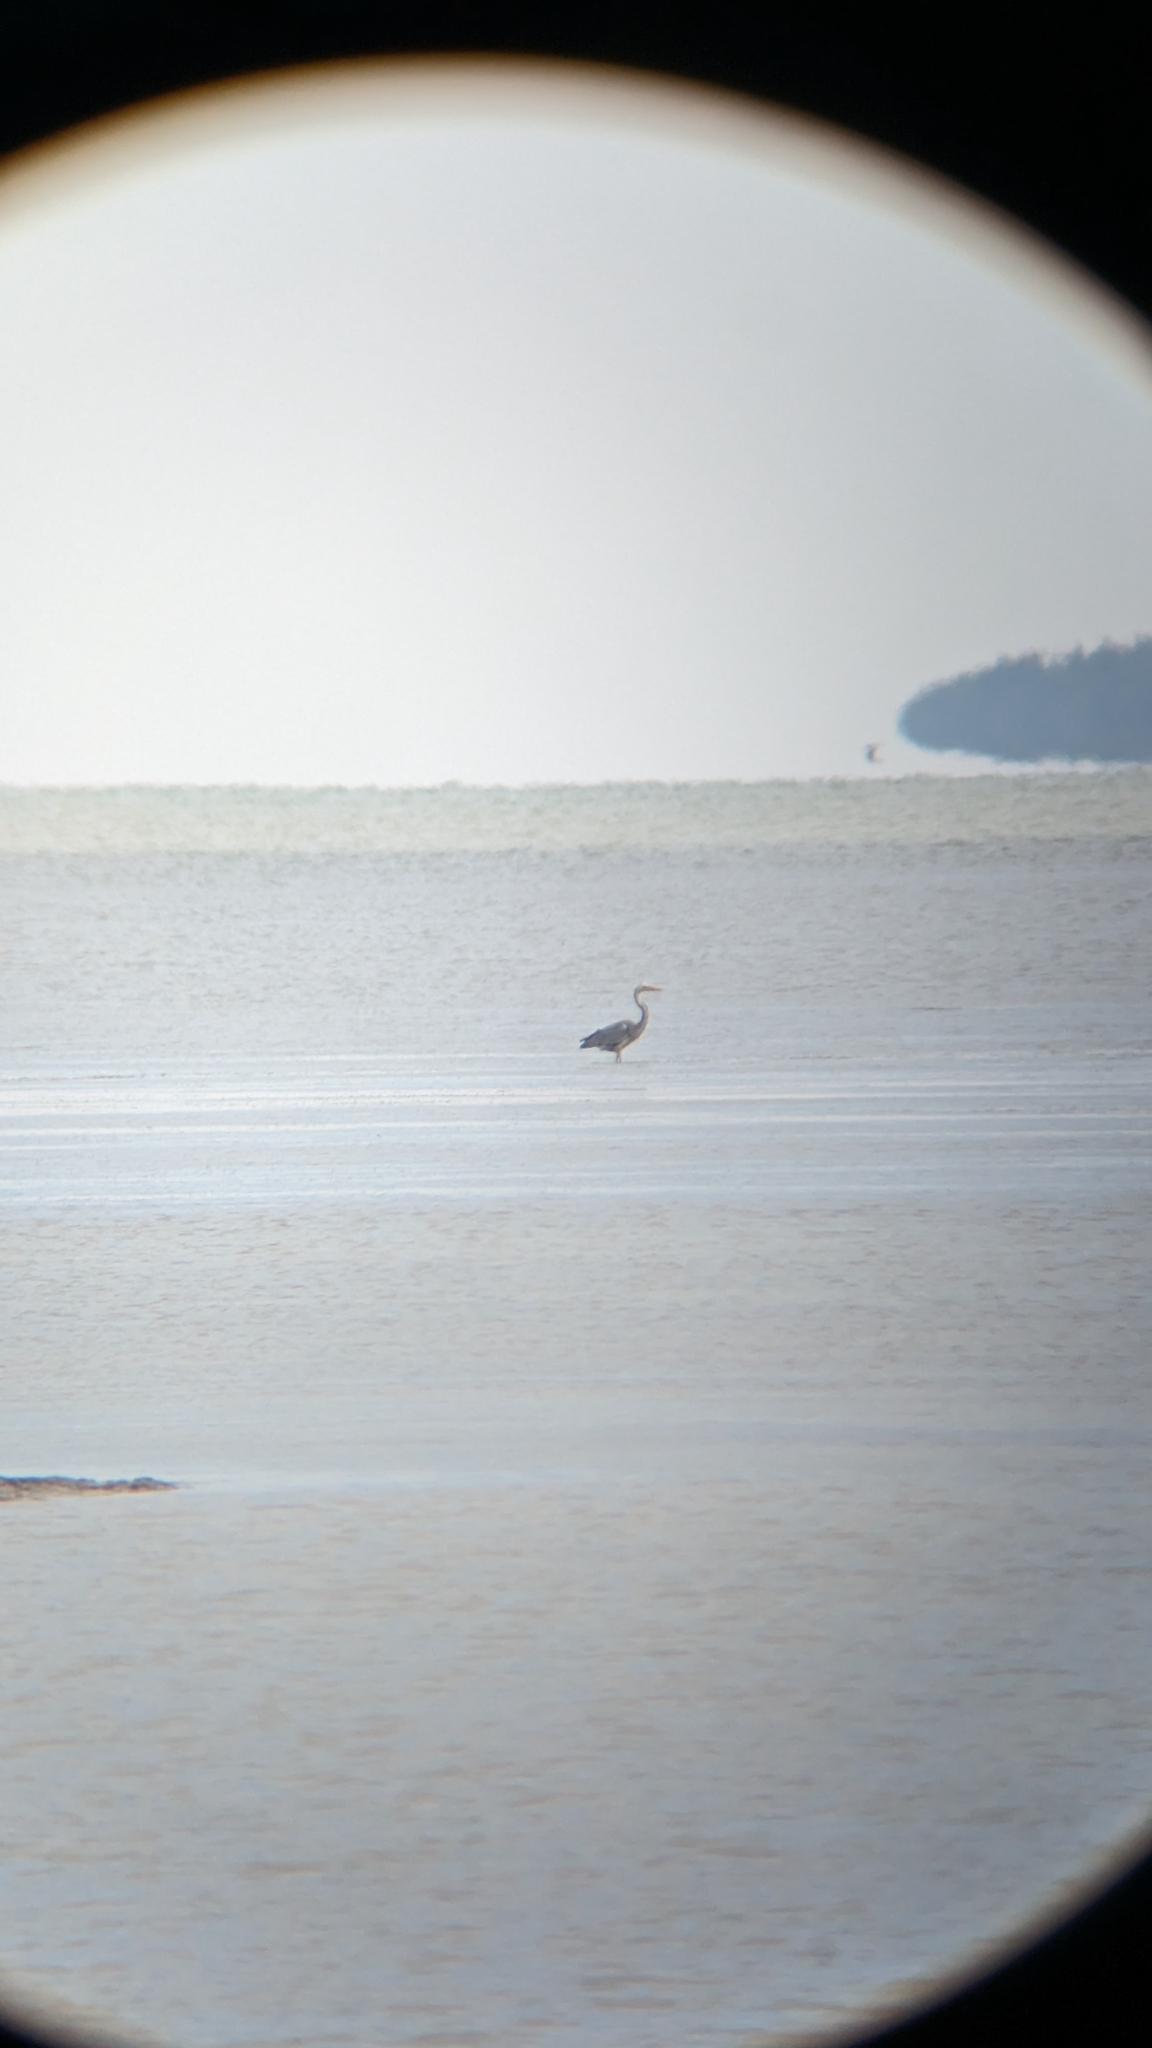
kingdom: Animalia
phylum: Chordata
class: Aves
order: Pelecaniformes
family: Ardeidae
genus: Ardea
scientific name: Ardea
